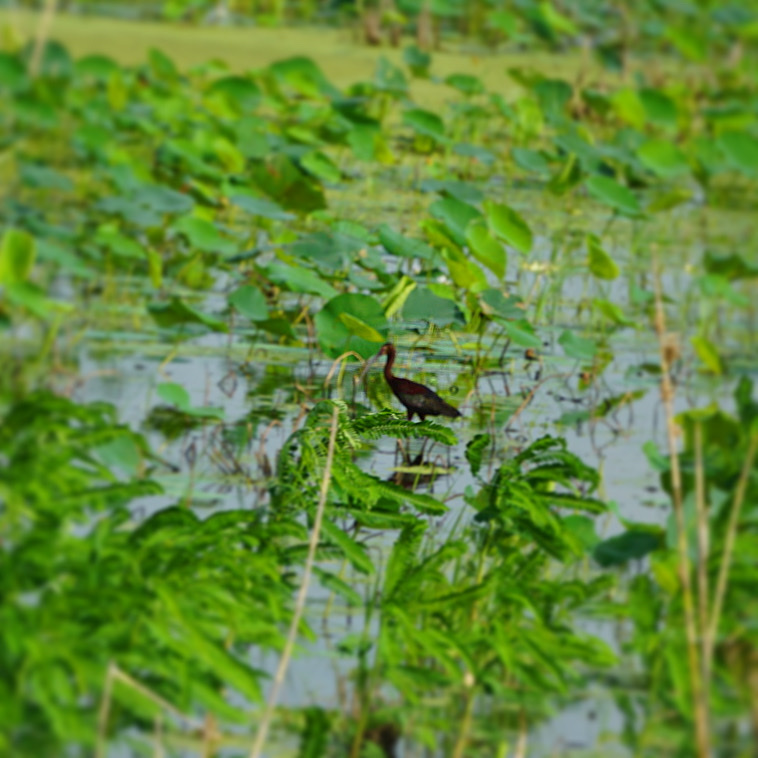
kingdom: Animalia
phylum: Chordata
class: Aves
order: Pelecaniformes
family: Threskiornithidae
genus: Plegadis
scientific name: Plegadis chihi
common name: White-faced ibis
